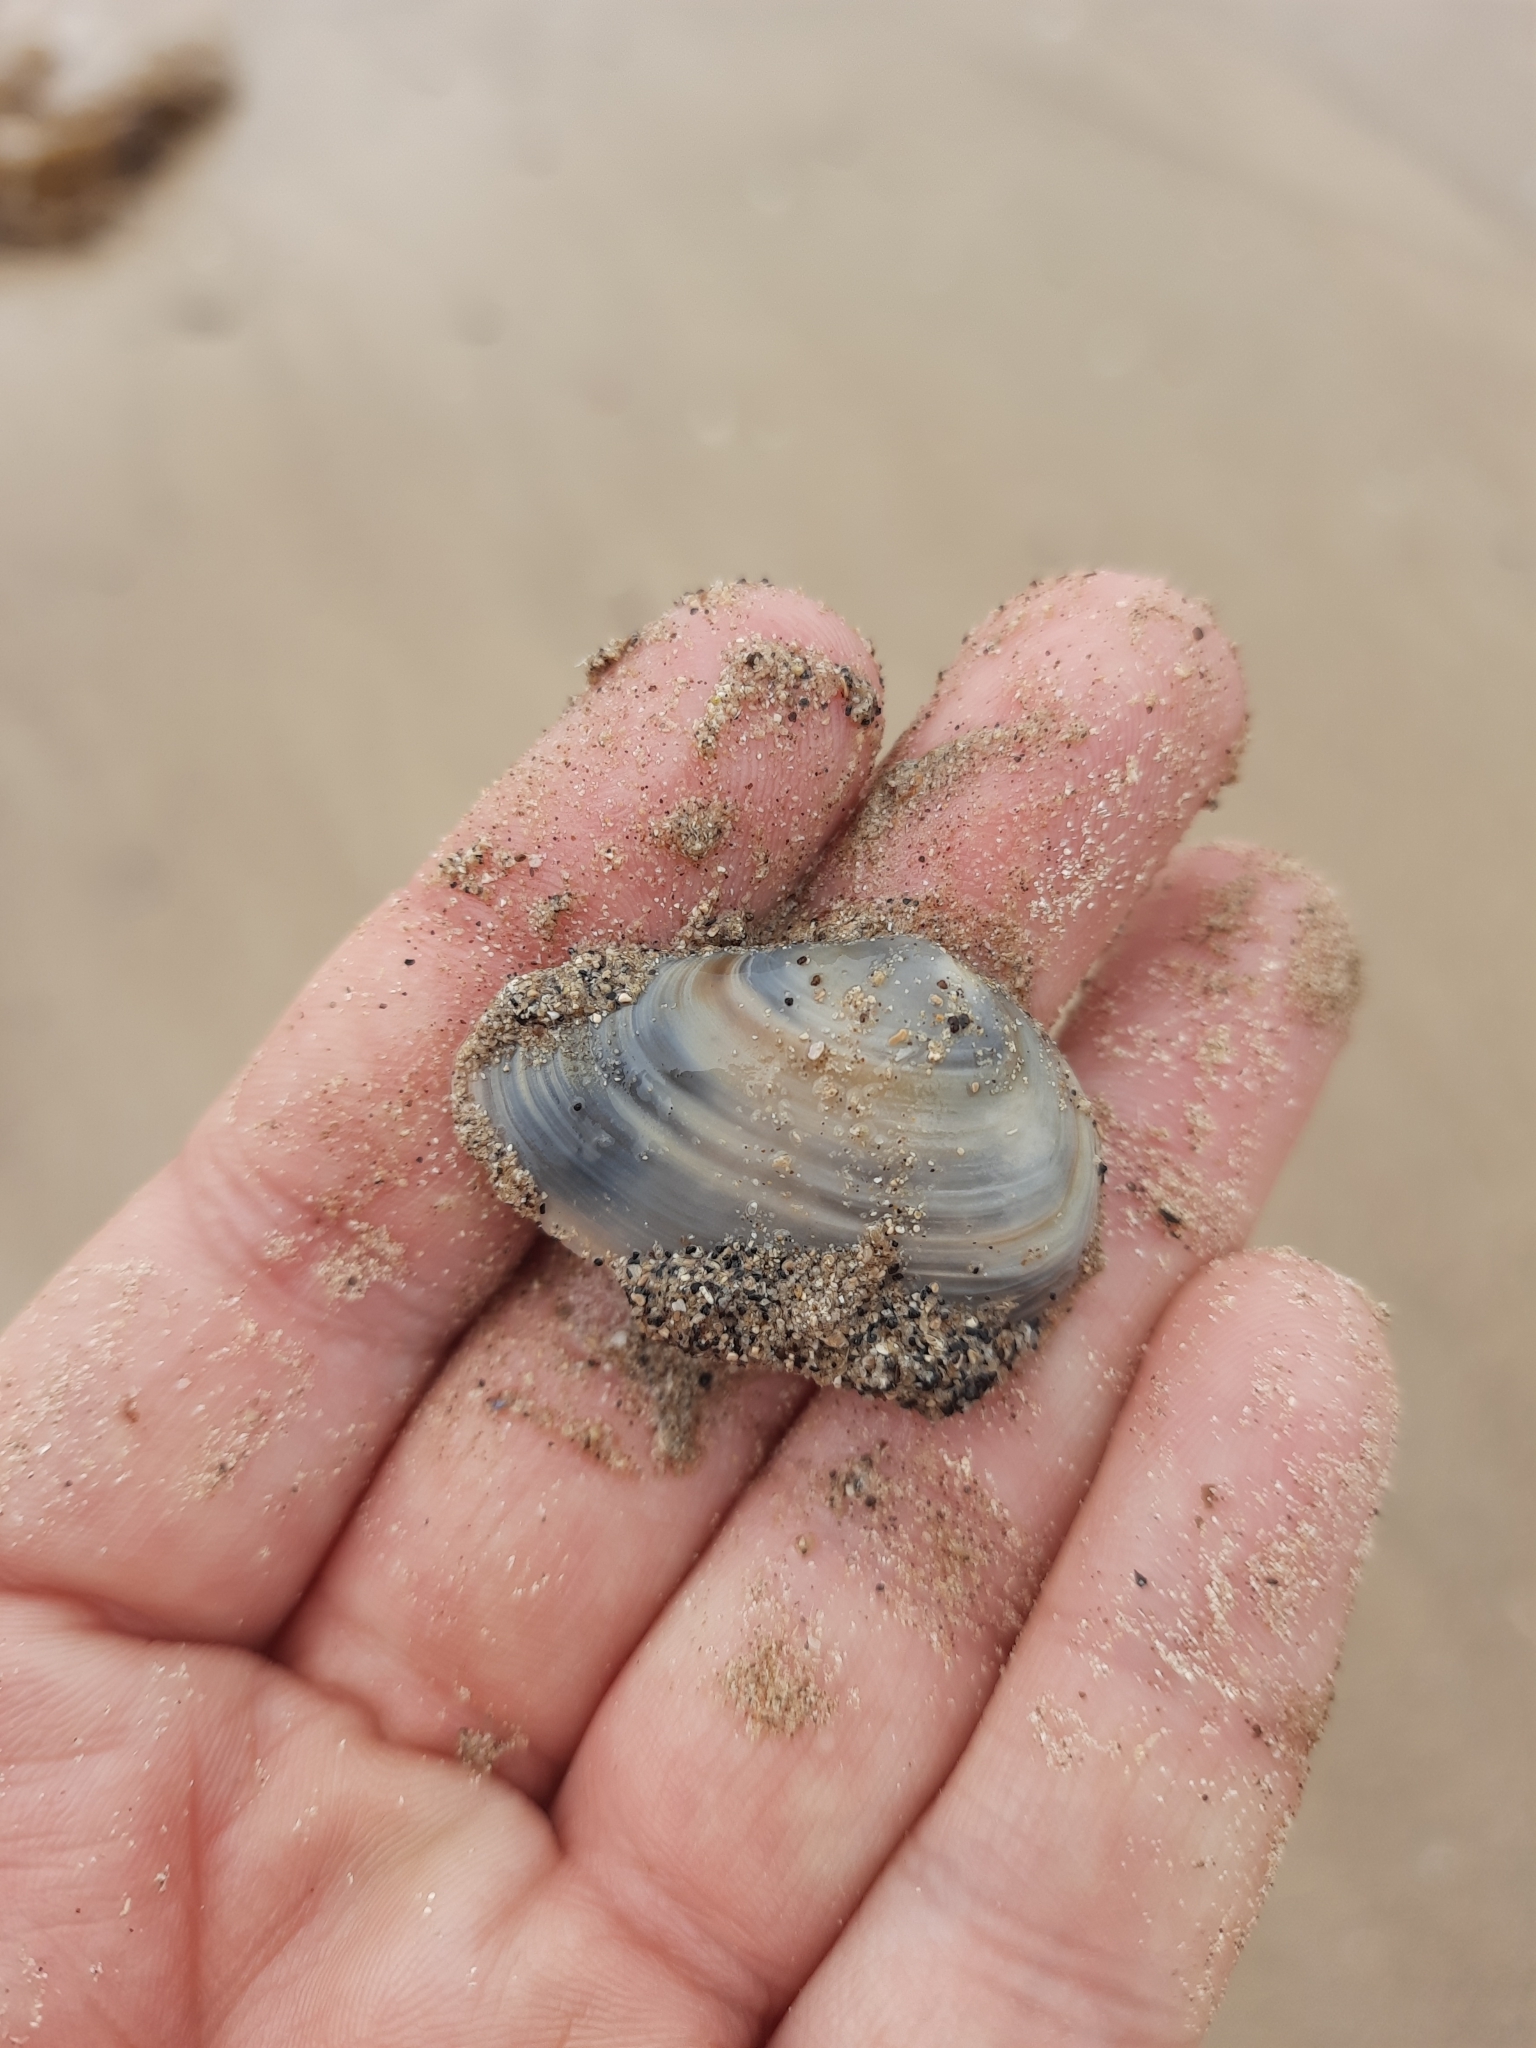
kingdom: Animalia
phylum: Mollusca
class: Bivalvia
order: Venerida
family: Mesodesmatidae
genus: Paphies
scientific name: Paphies subtriangulata
